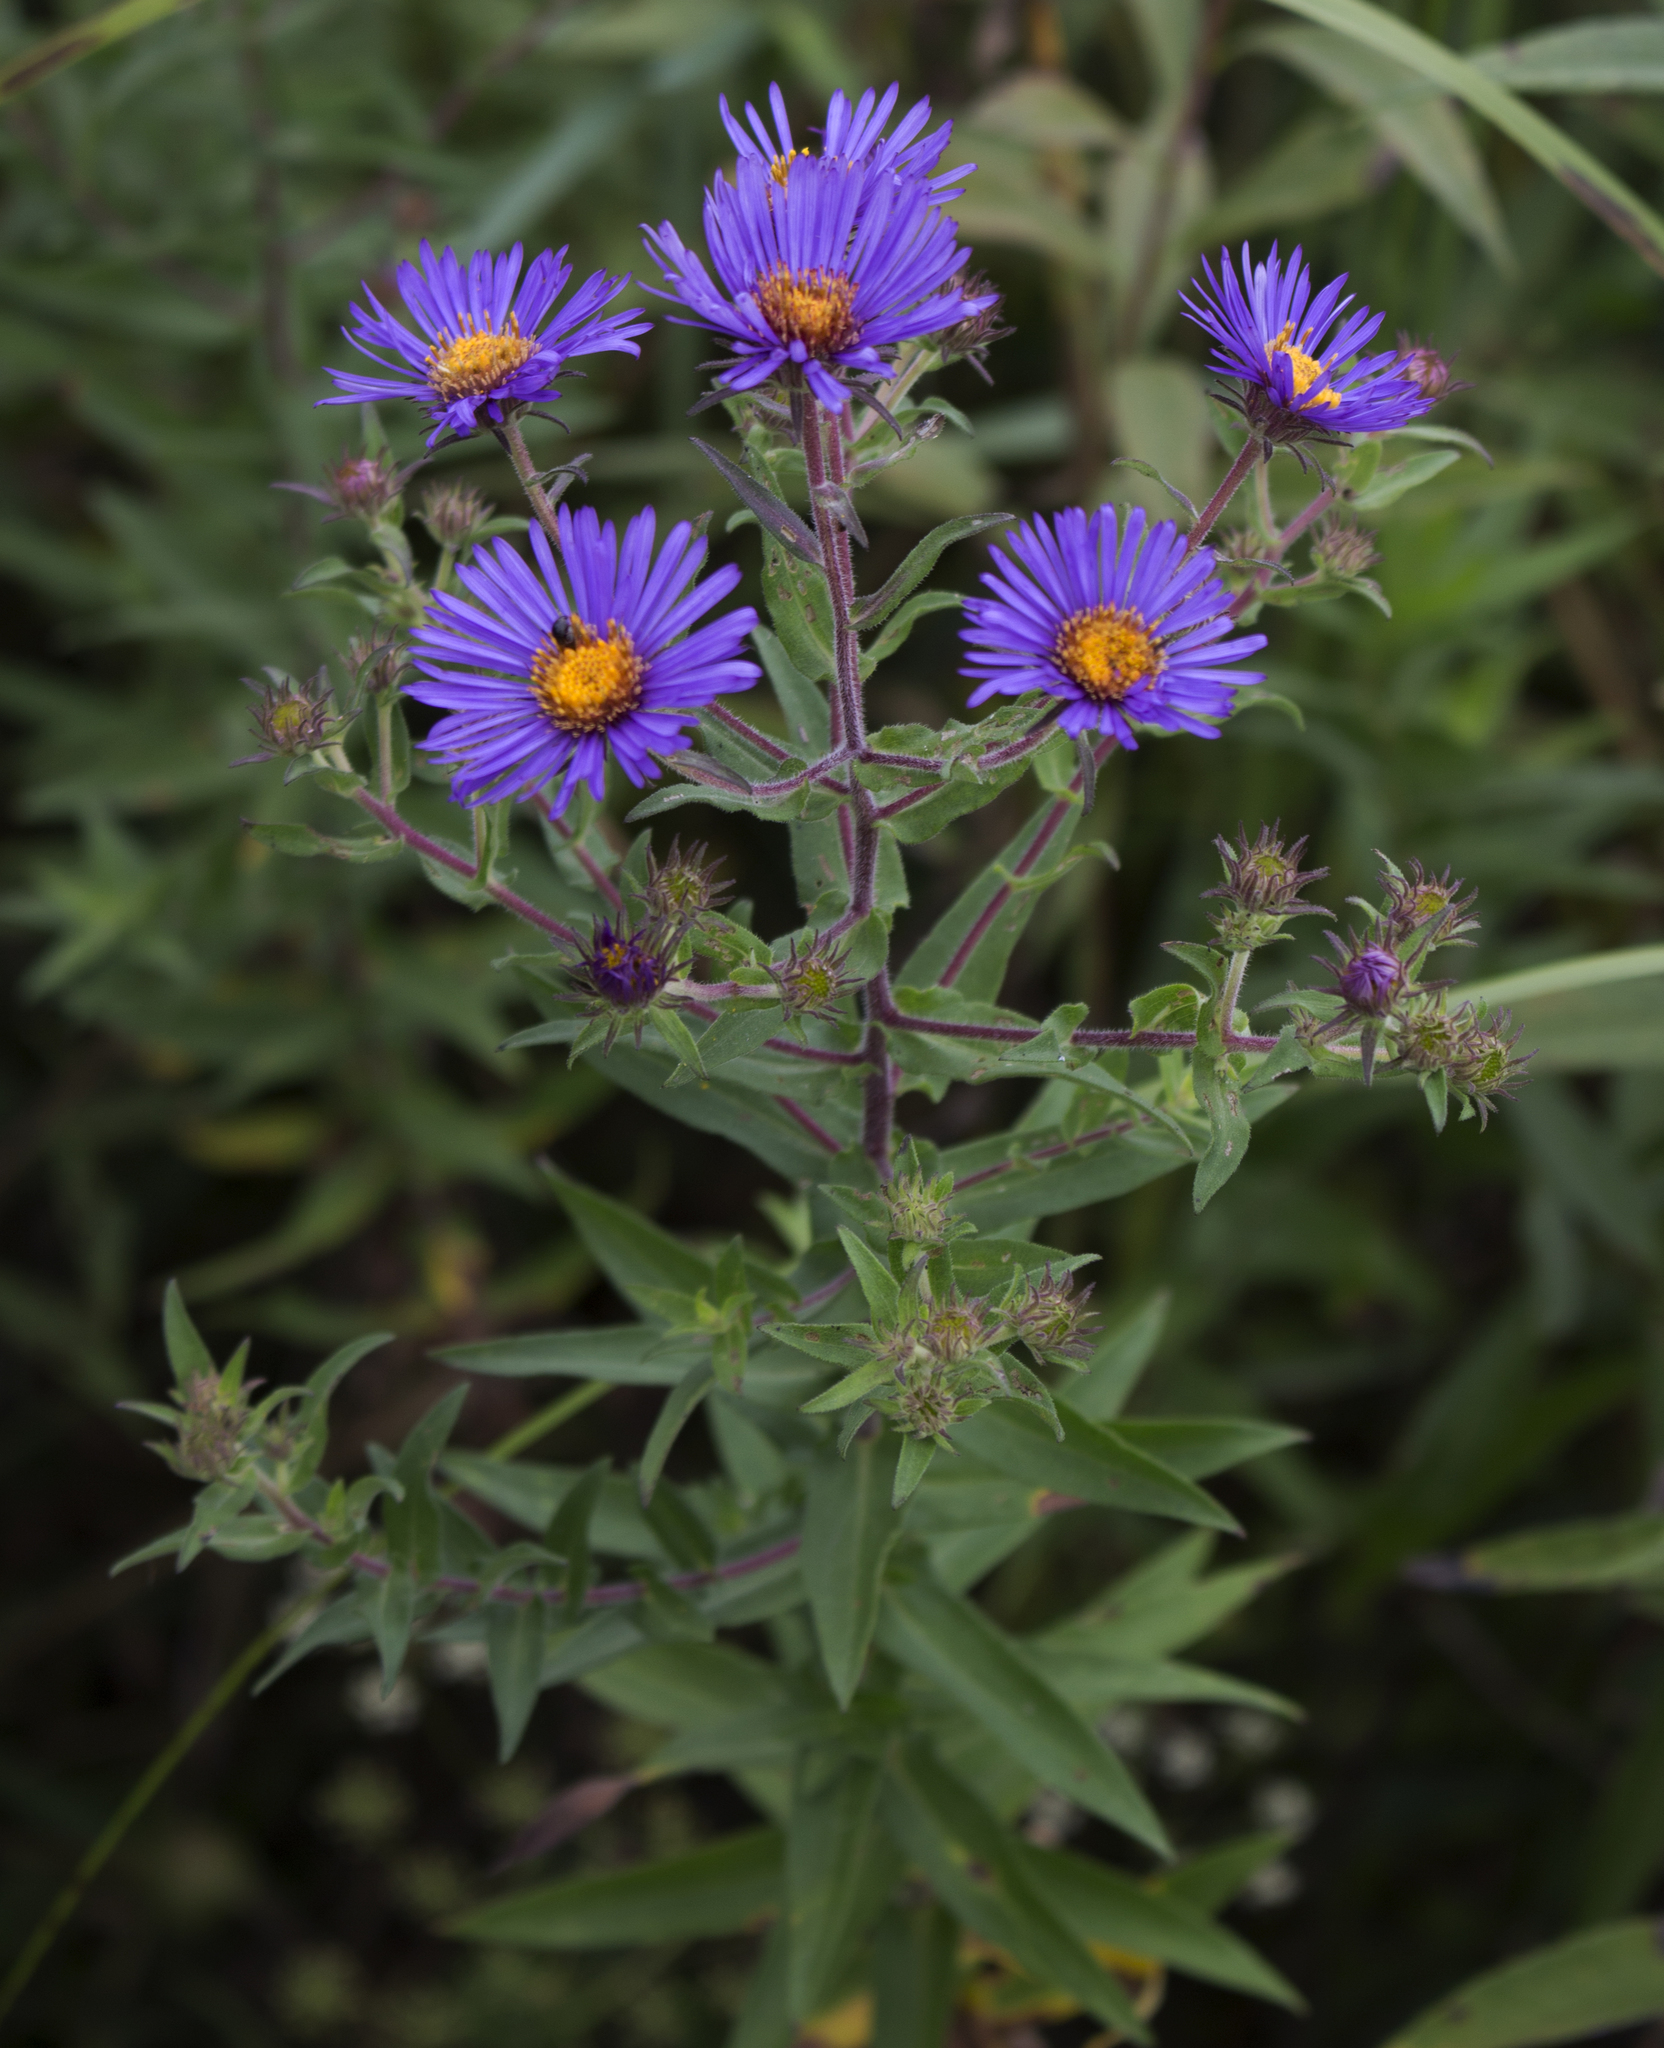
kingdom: Plantae
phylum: Tracheophyta
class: Magnoliopsida
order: Asterales
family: Asteraceae
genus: Symphyotrichum
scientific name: Symphyotrichum novae-angliae
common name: Michaelmas daisy
